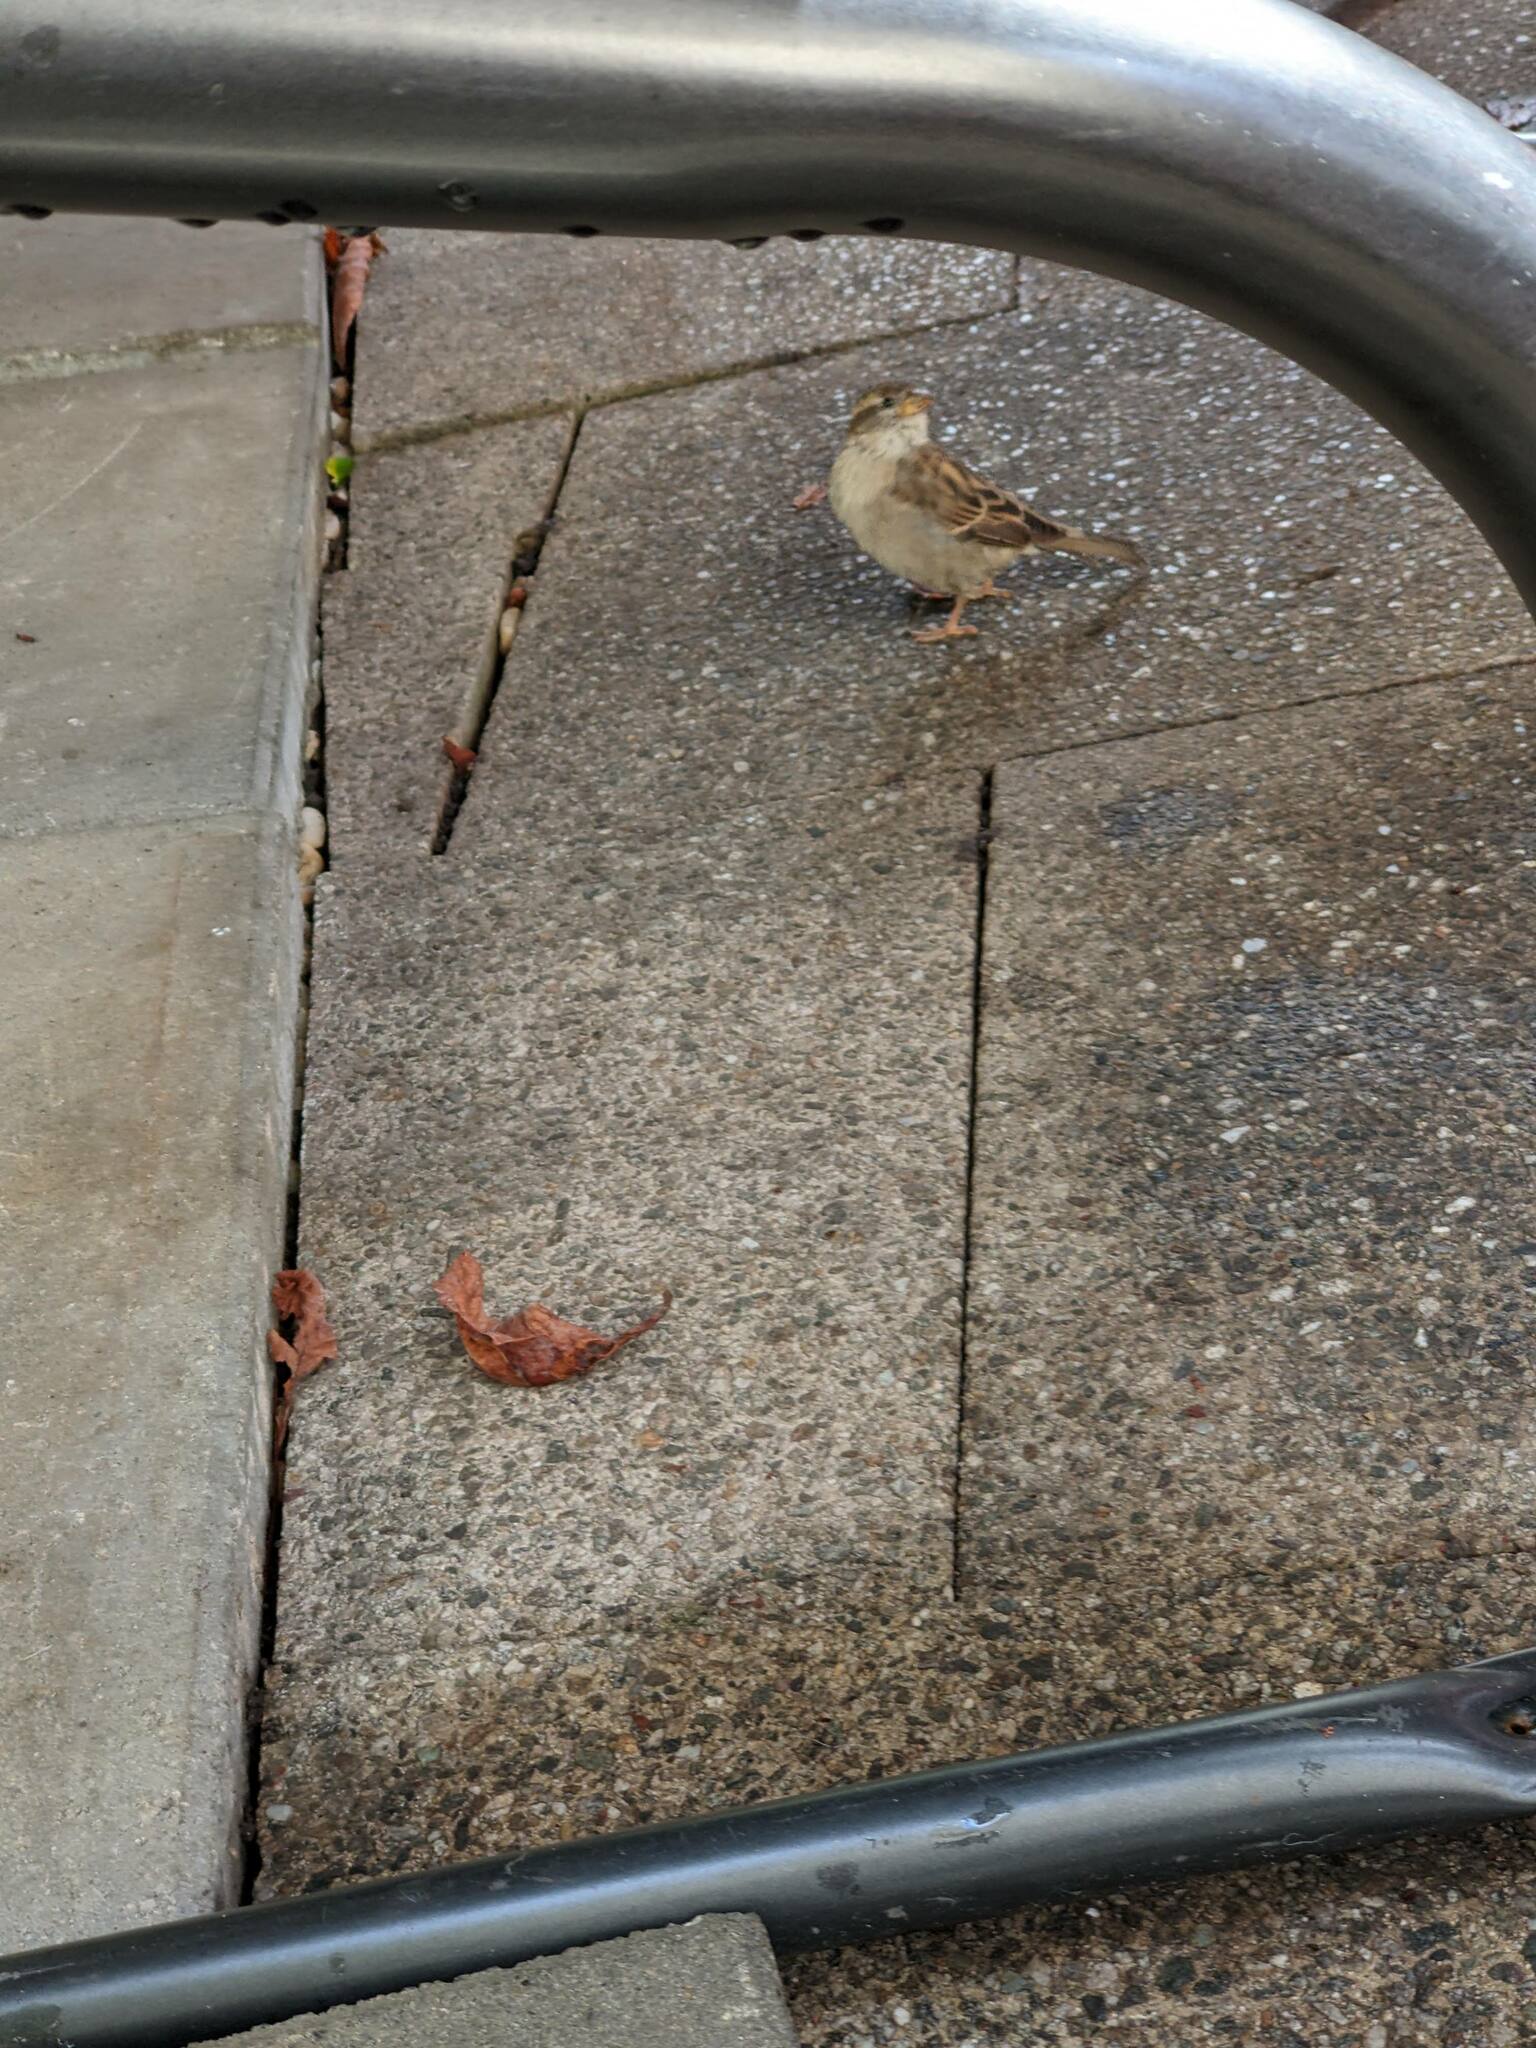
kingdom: Animalia
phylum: Chordata
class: Aves
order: Passeriformes
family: Passeridae
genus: Passer
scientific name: Passer domesticus
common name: House sparrow
